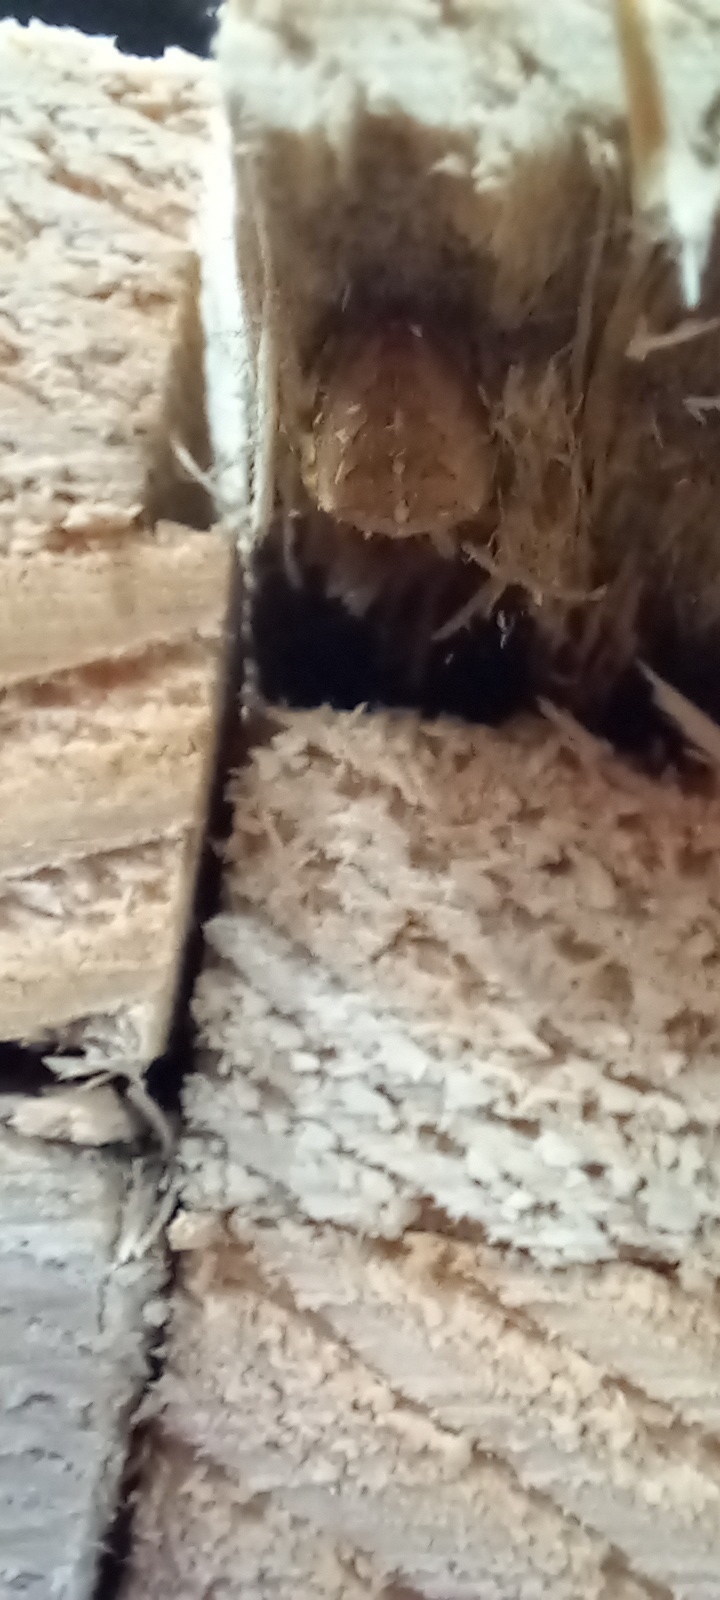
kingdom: Animalia
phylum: Arthropoda
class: Arachnida
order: Araneae
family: Araneidae
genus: Araneus
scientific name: Araneus diadematus
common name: Cross orbweaver
